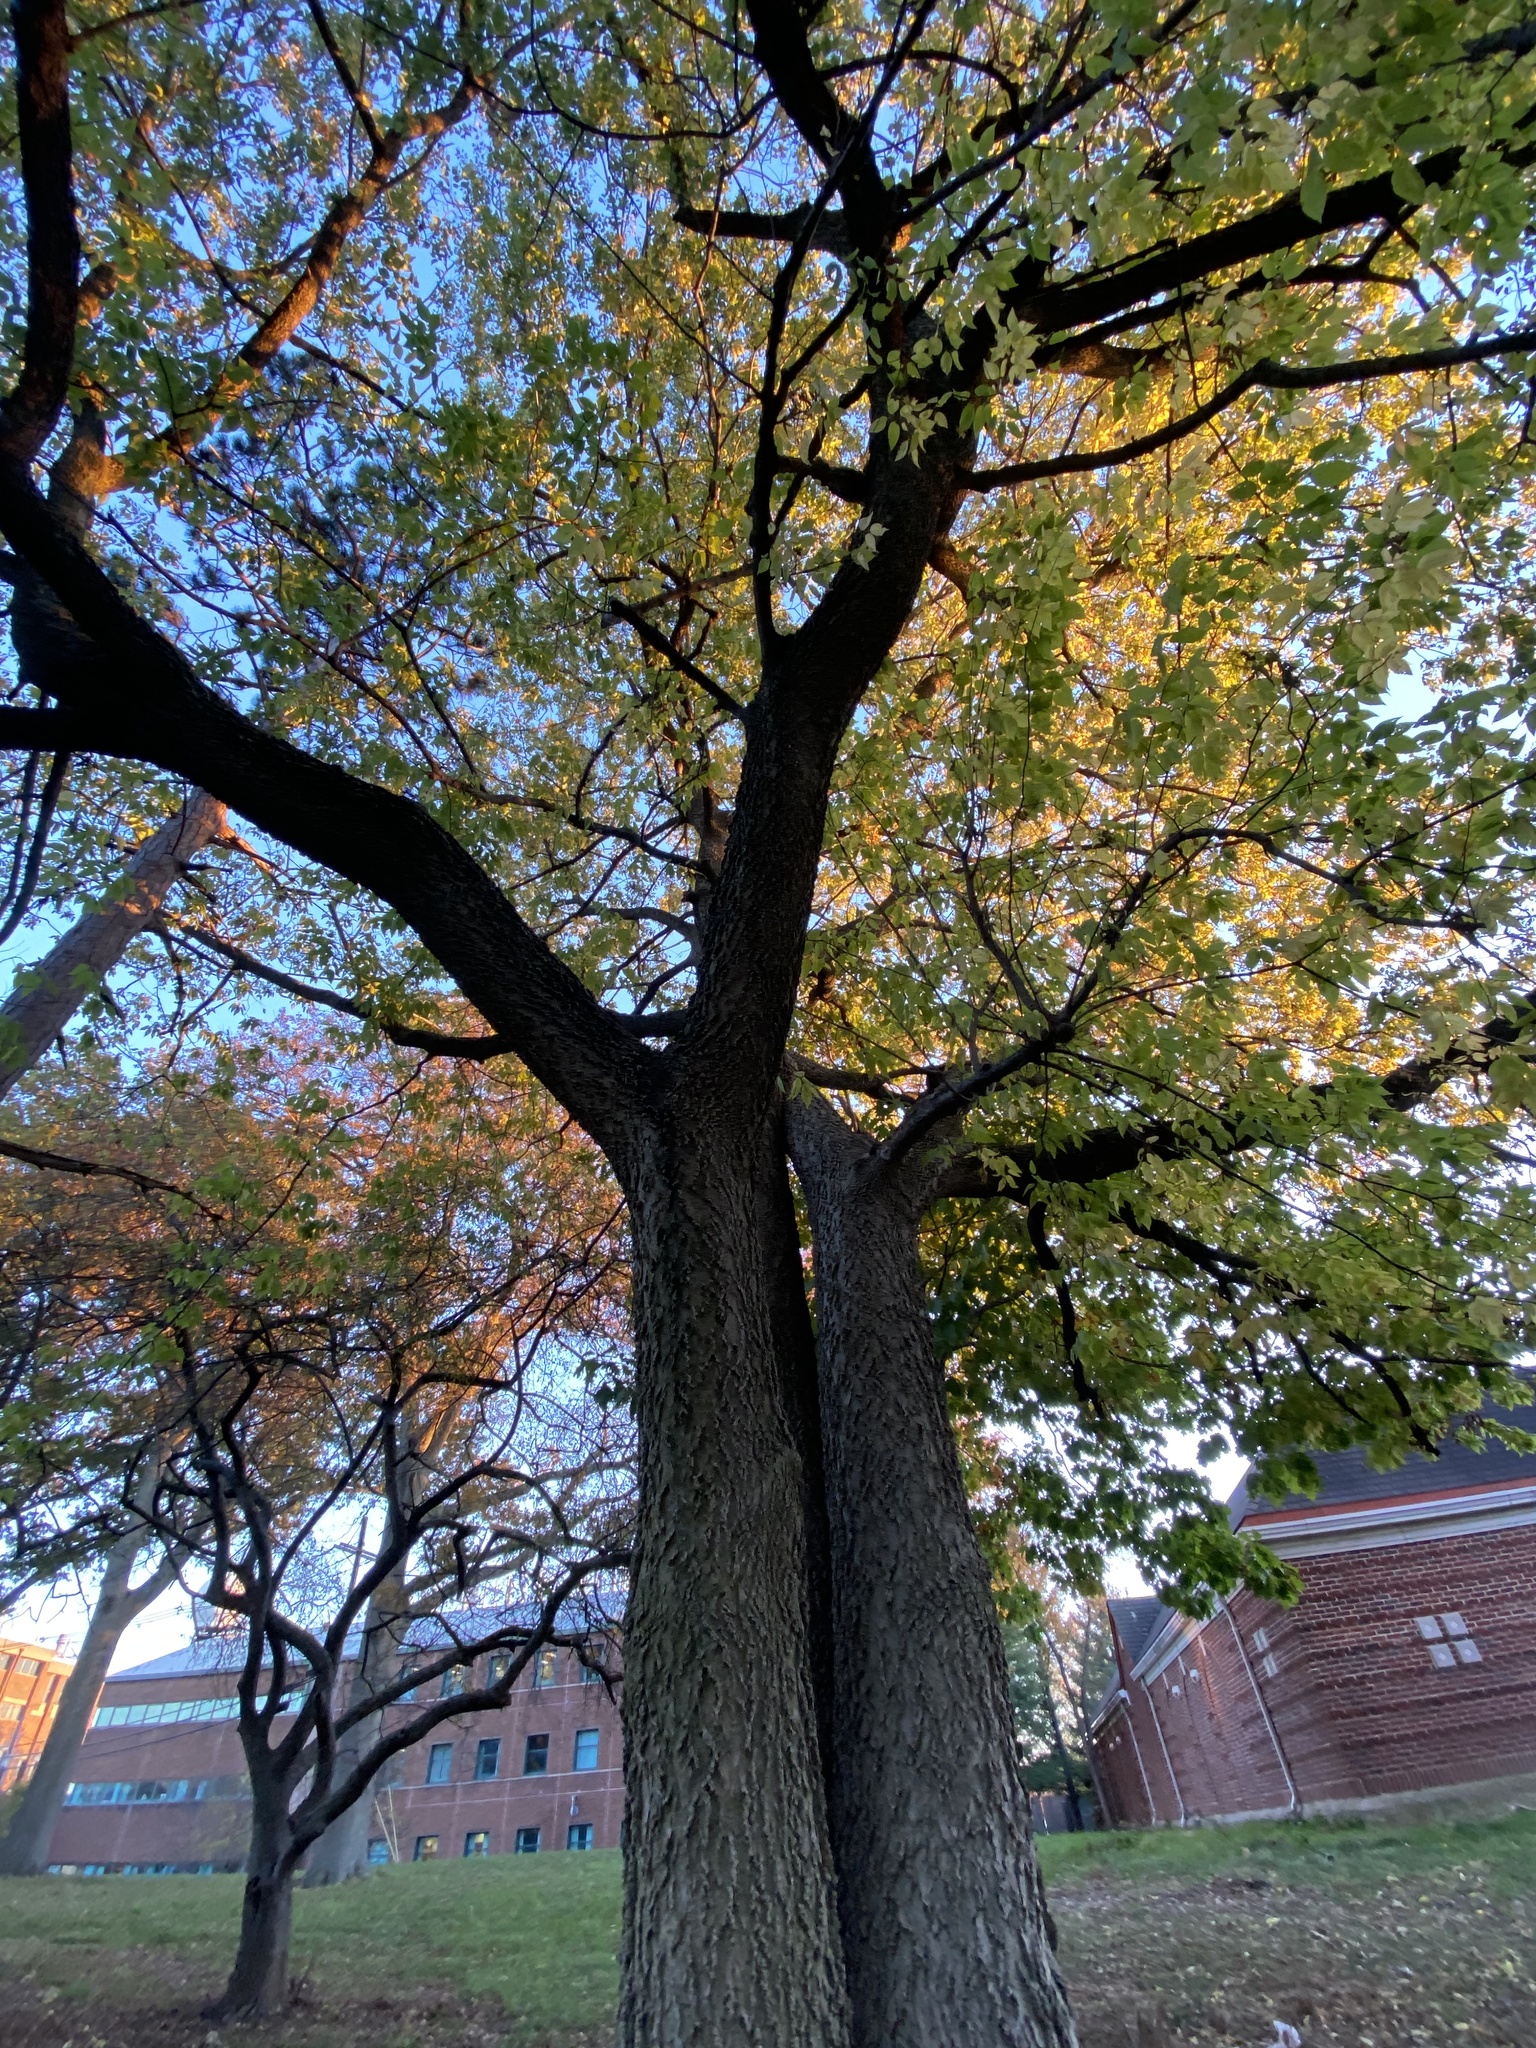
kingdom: Plantae
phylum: Tracheophyta
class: Magnoliopsida
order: Rosales
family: Cannabaceae
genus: Celtis
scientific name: Celtis occidentalis
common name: Common hackberry
